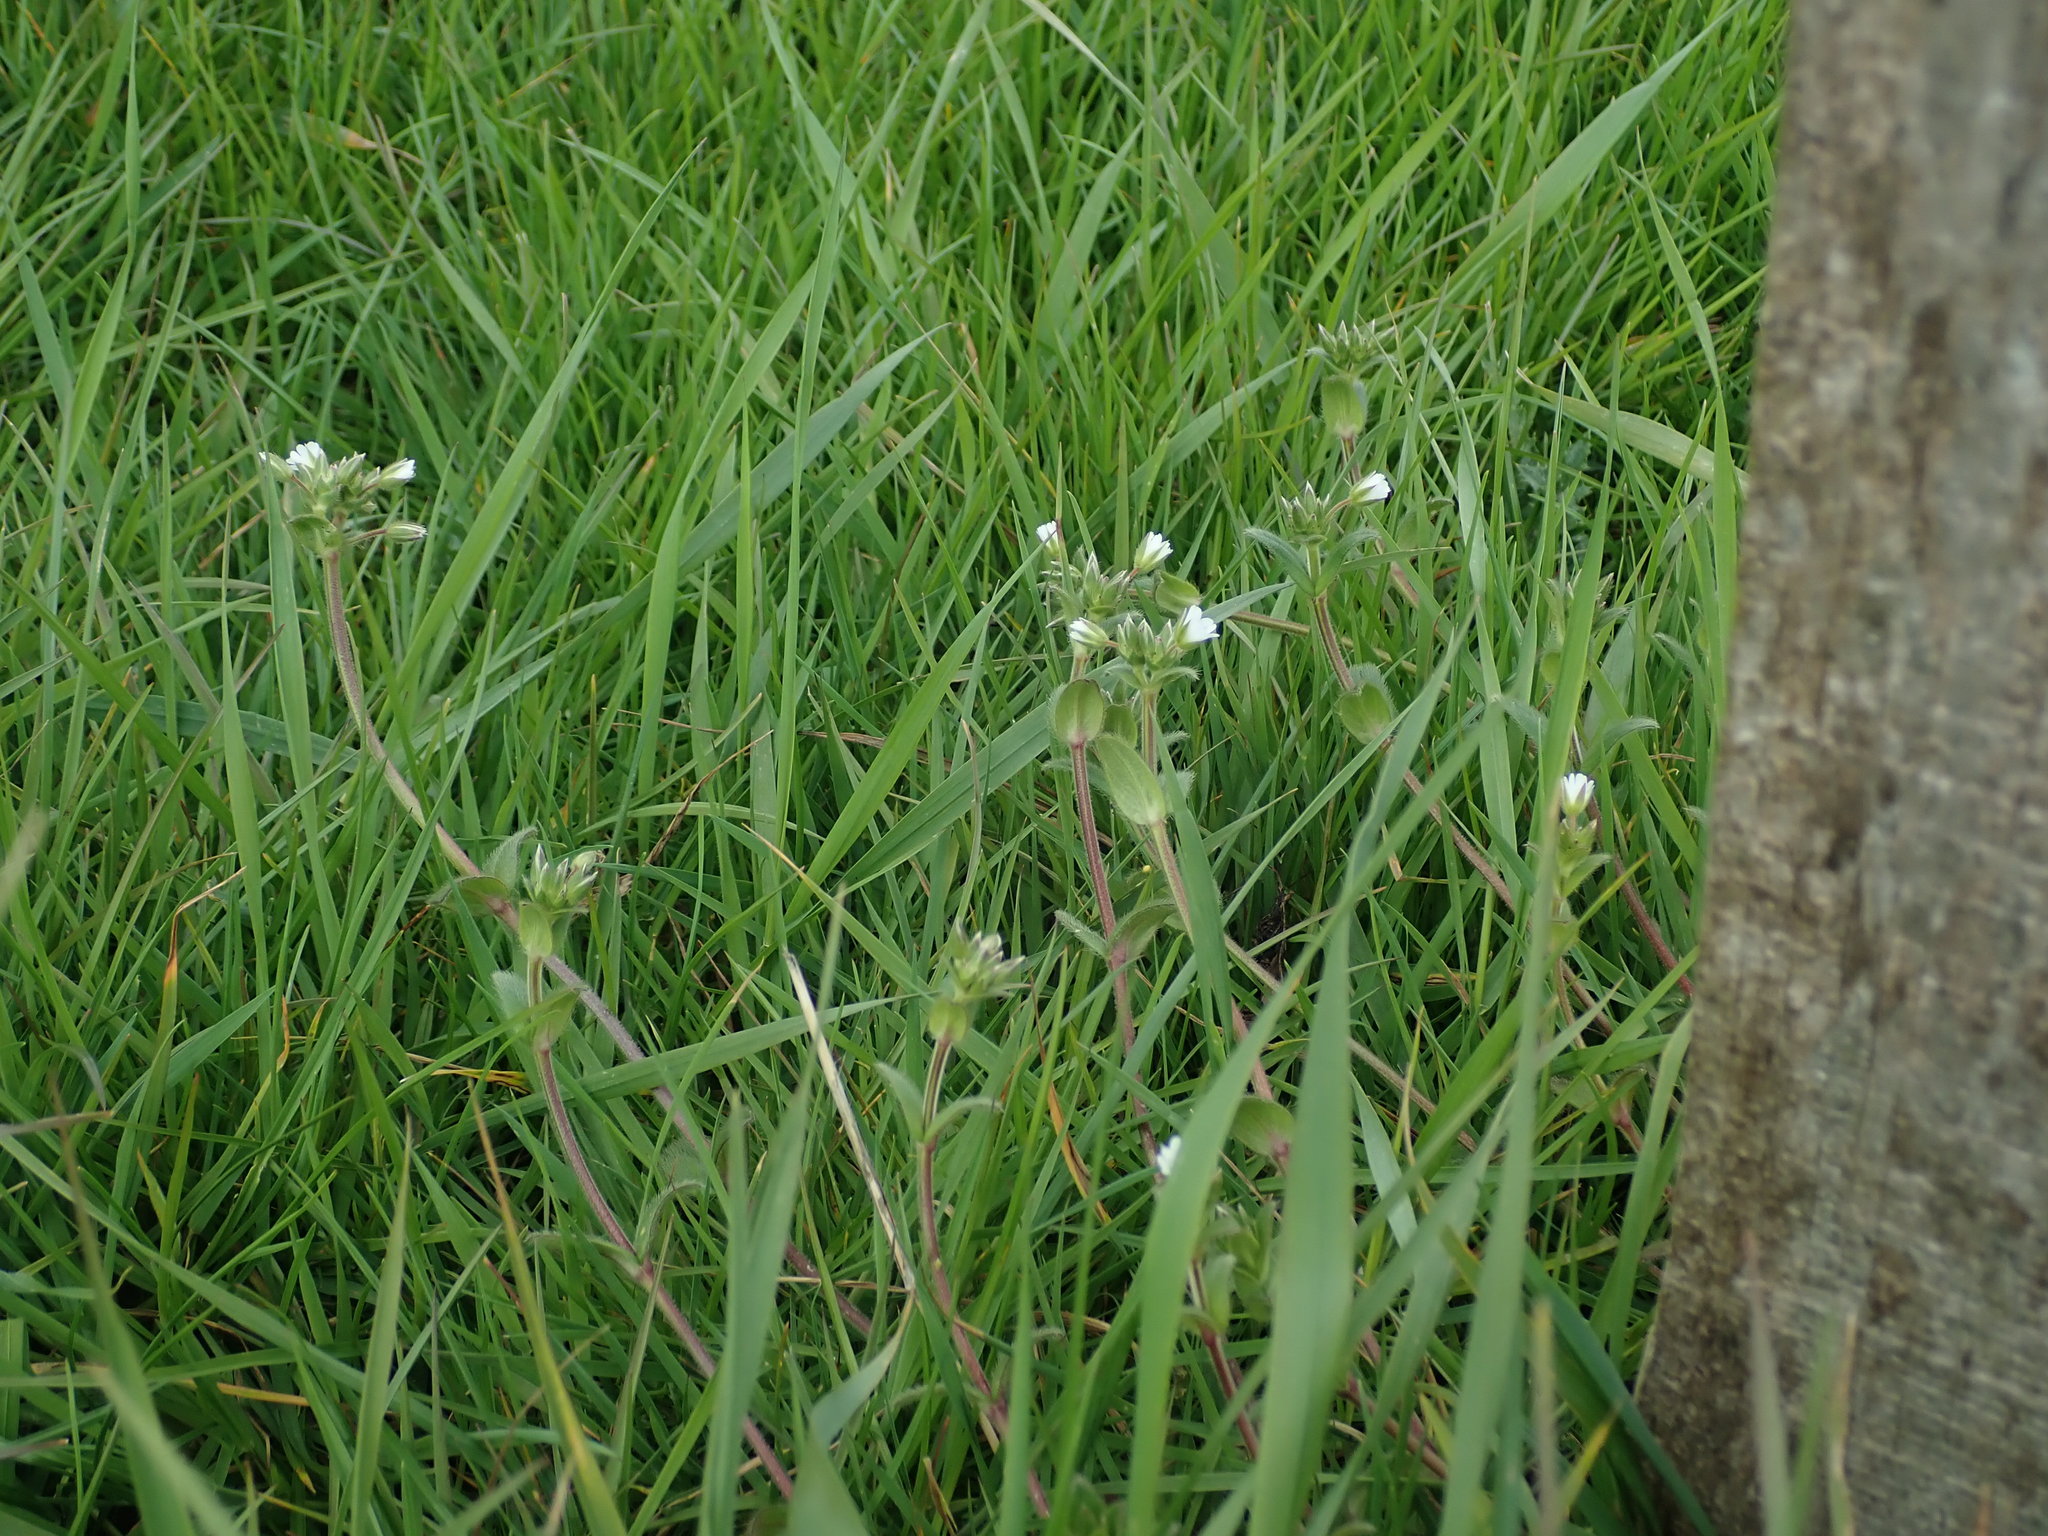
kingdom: Plantae
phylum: Tracheophyta
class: Magnoliopsida
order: Caryophyllales
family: Caryophyllaceae
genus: Cerastium
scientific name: Cerastium fontanum
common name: Common mouse-ear
